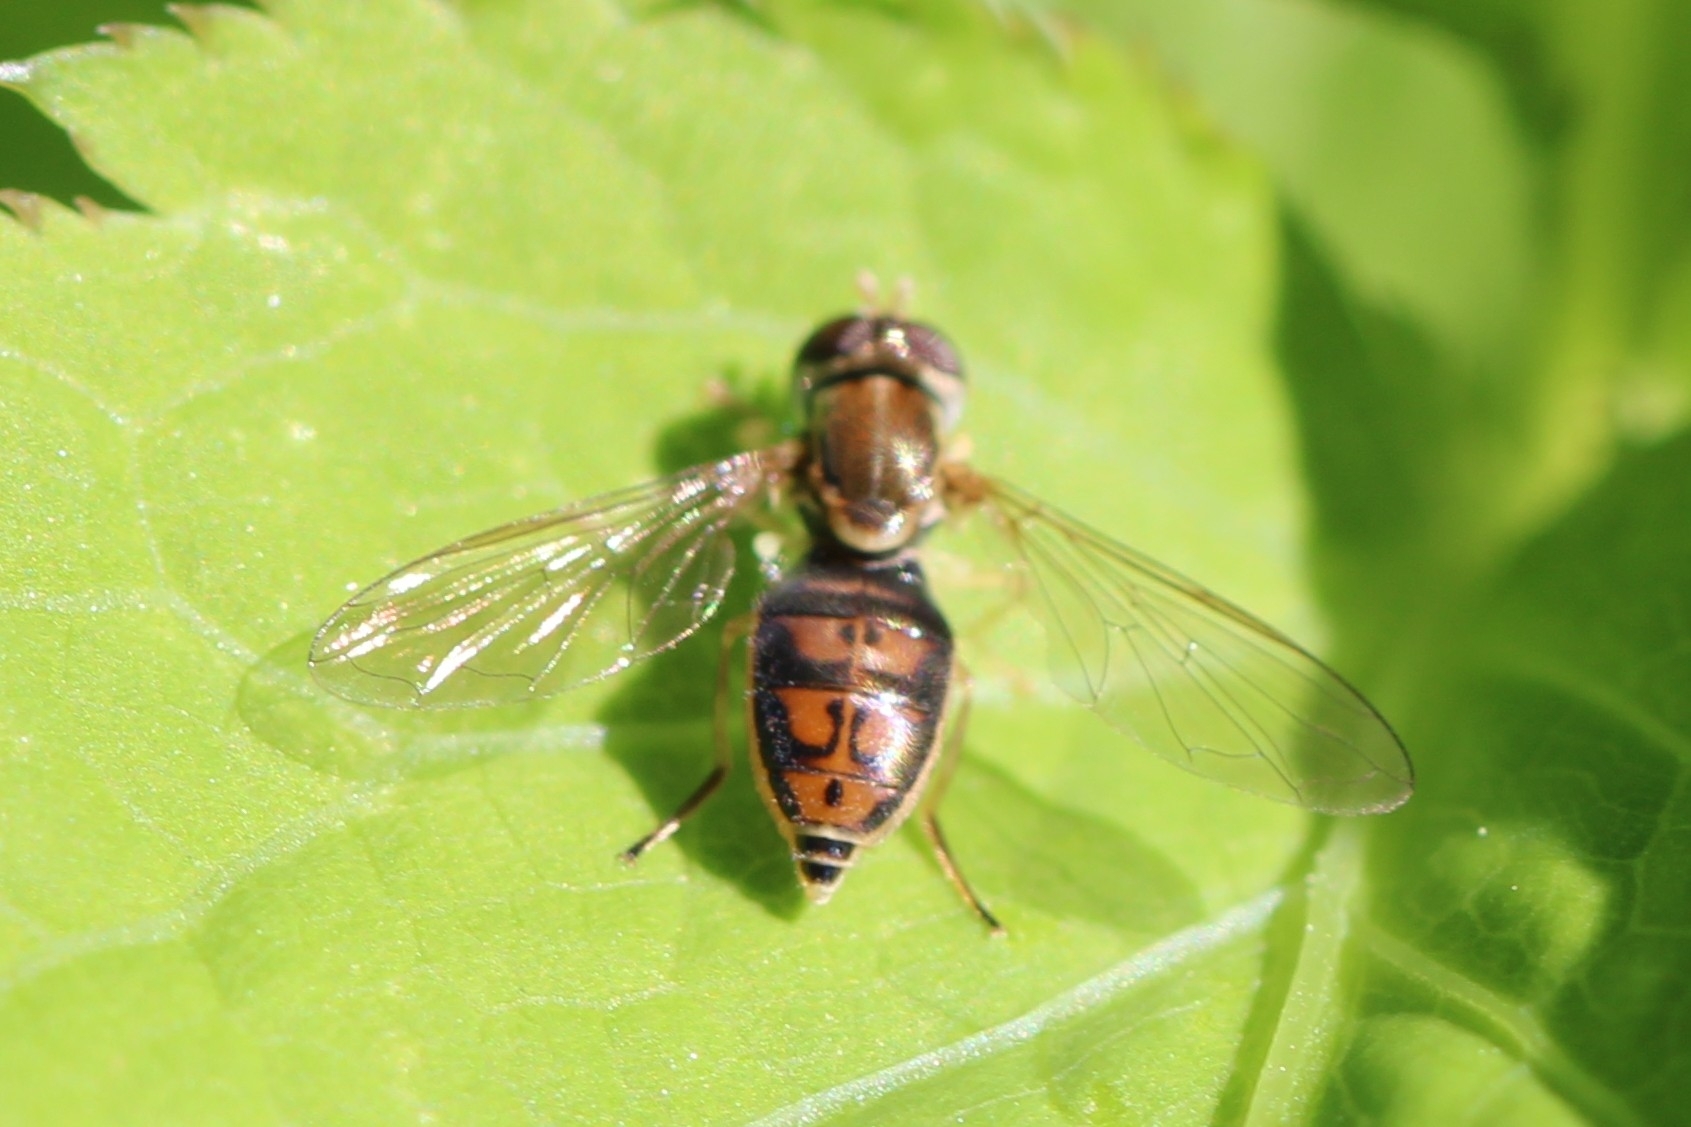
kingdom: Animalia
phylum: Arthropoda
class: Insecta
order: Diptera
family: Syrphidae
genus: Toxomerus
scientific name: Toxomerus marginatus
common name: Syrphid fly
